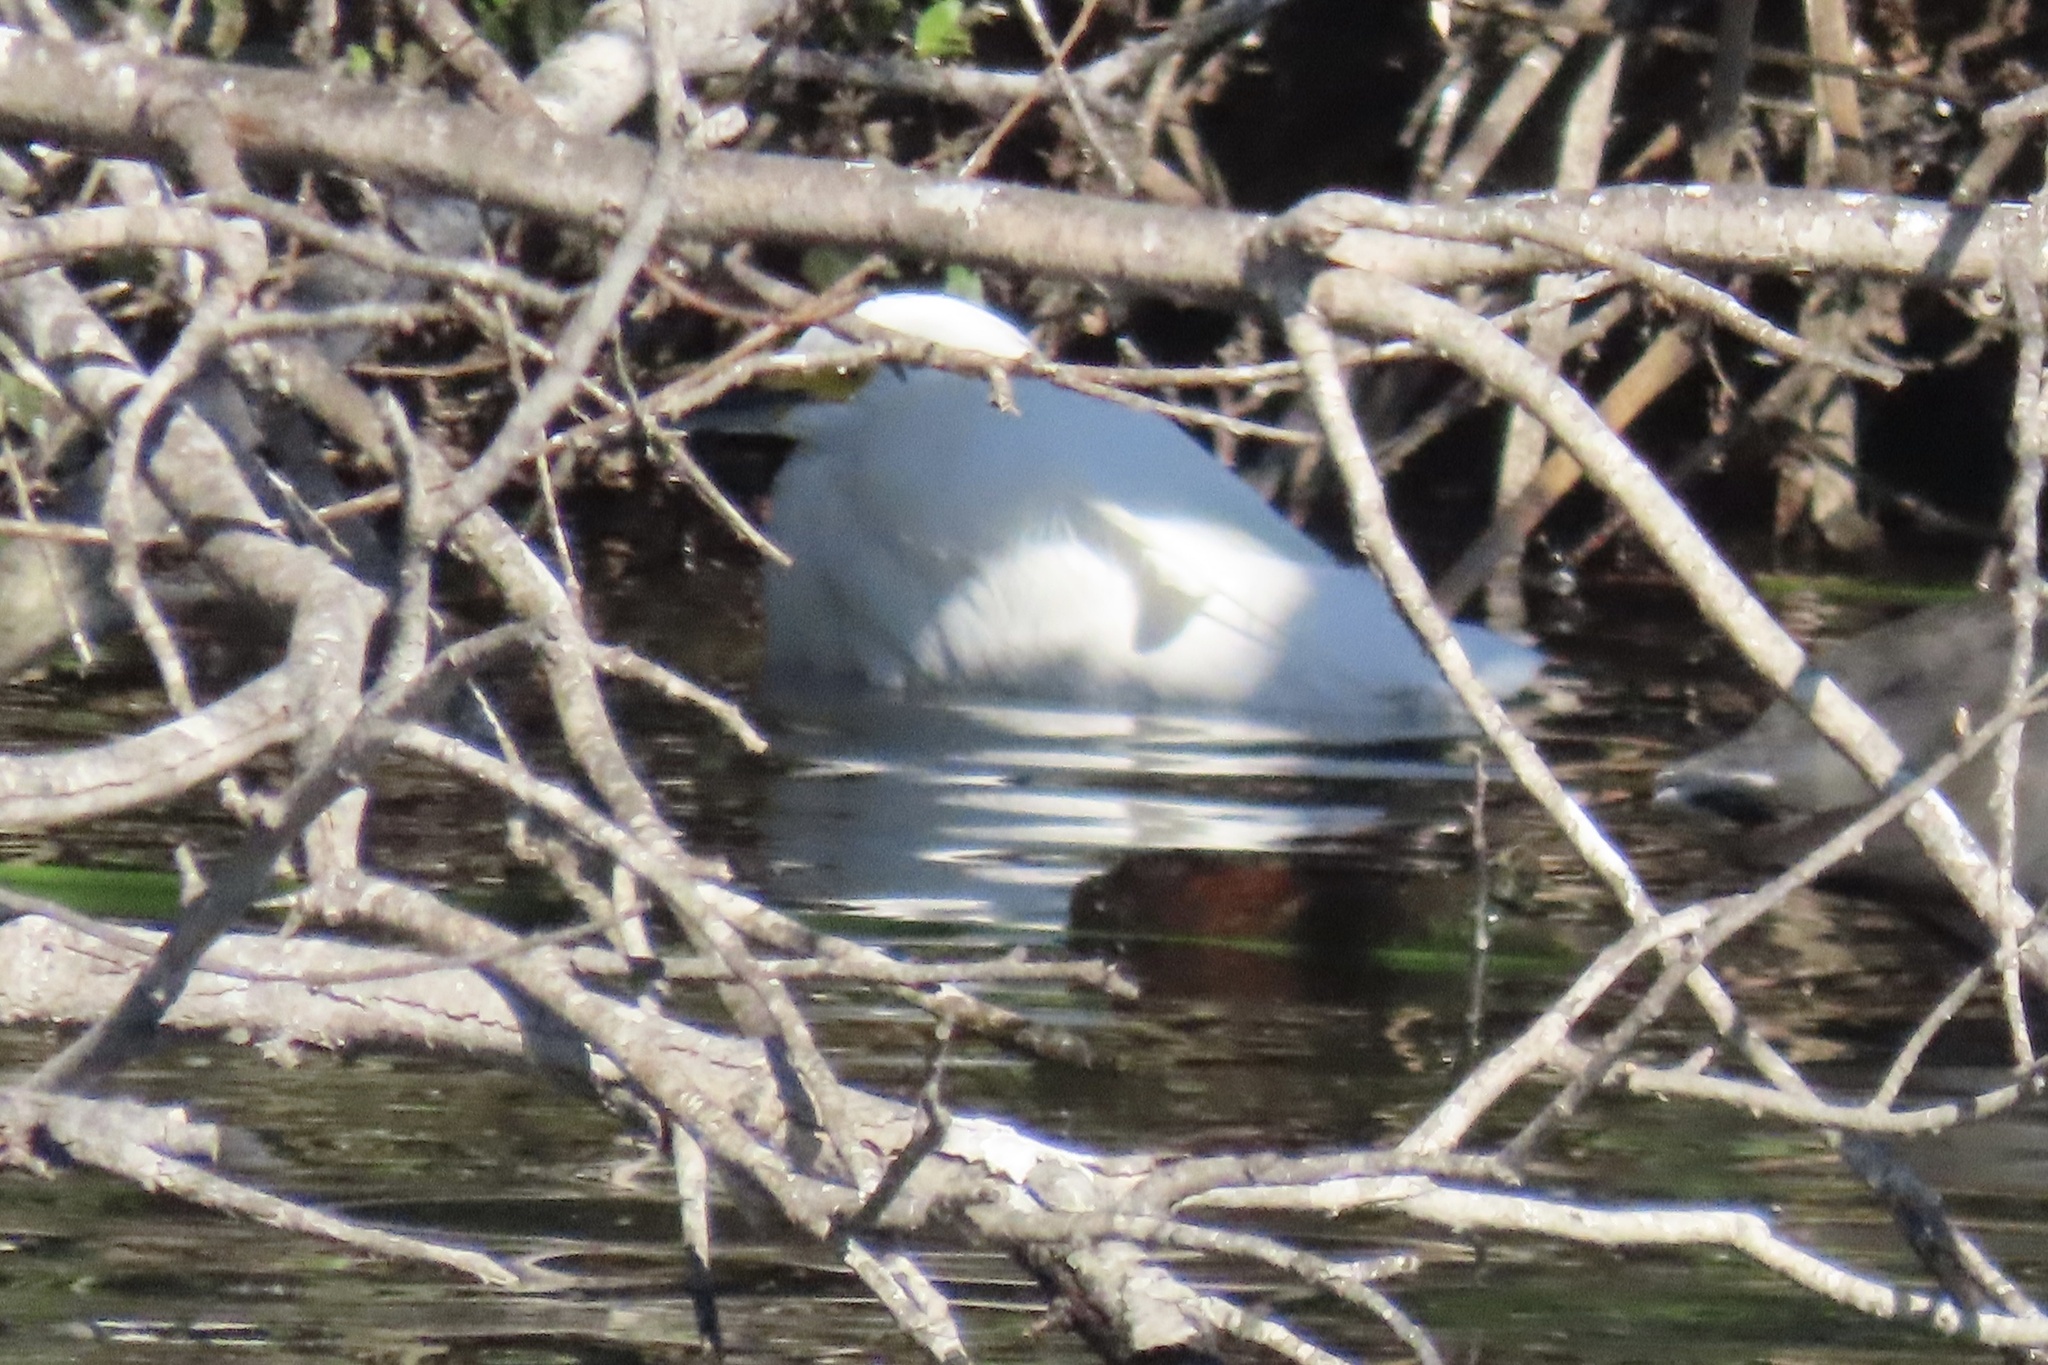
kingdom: Animalia
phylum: Chordata
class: Aves
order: Pelecaniformes
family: Ardeidae
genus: Egretta
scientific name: Egretta thula
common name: Snowy egret
